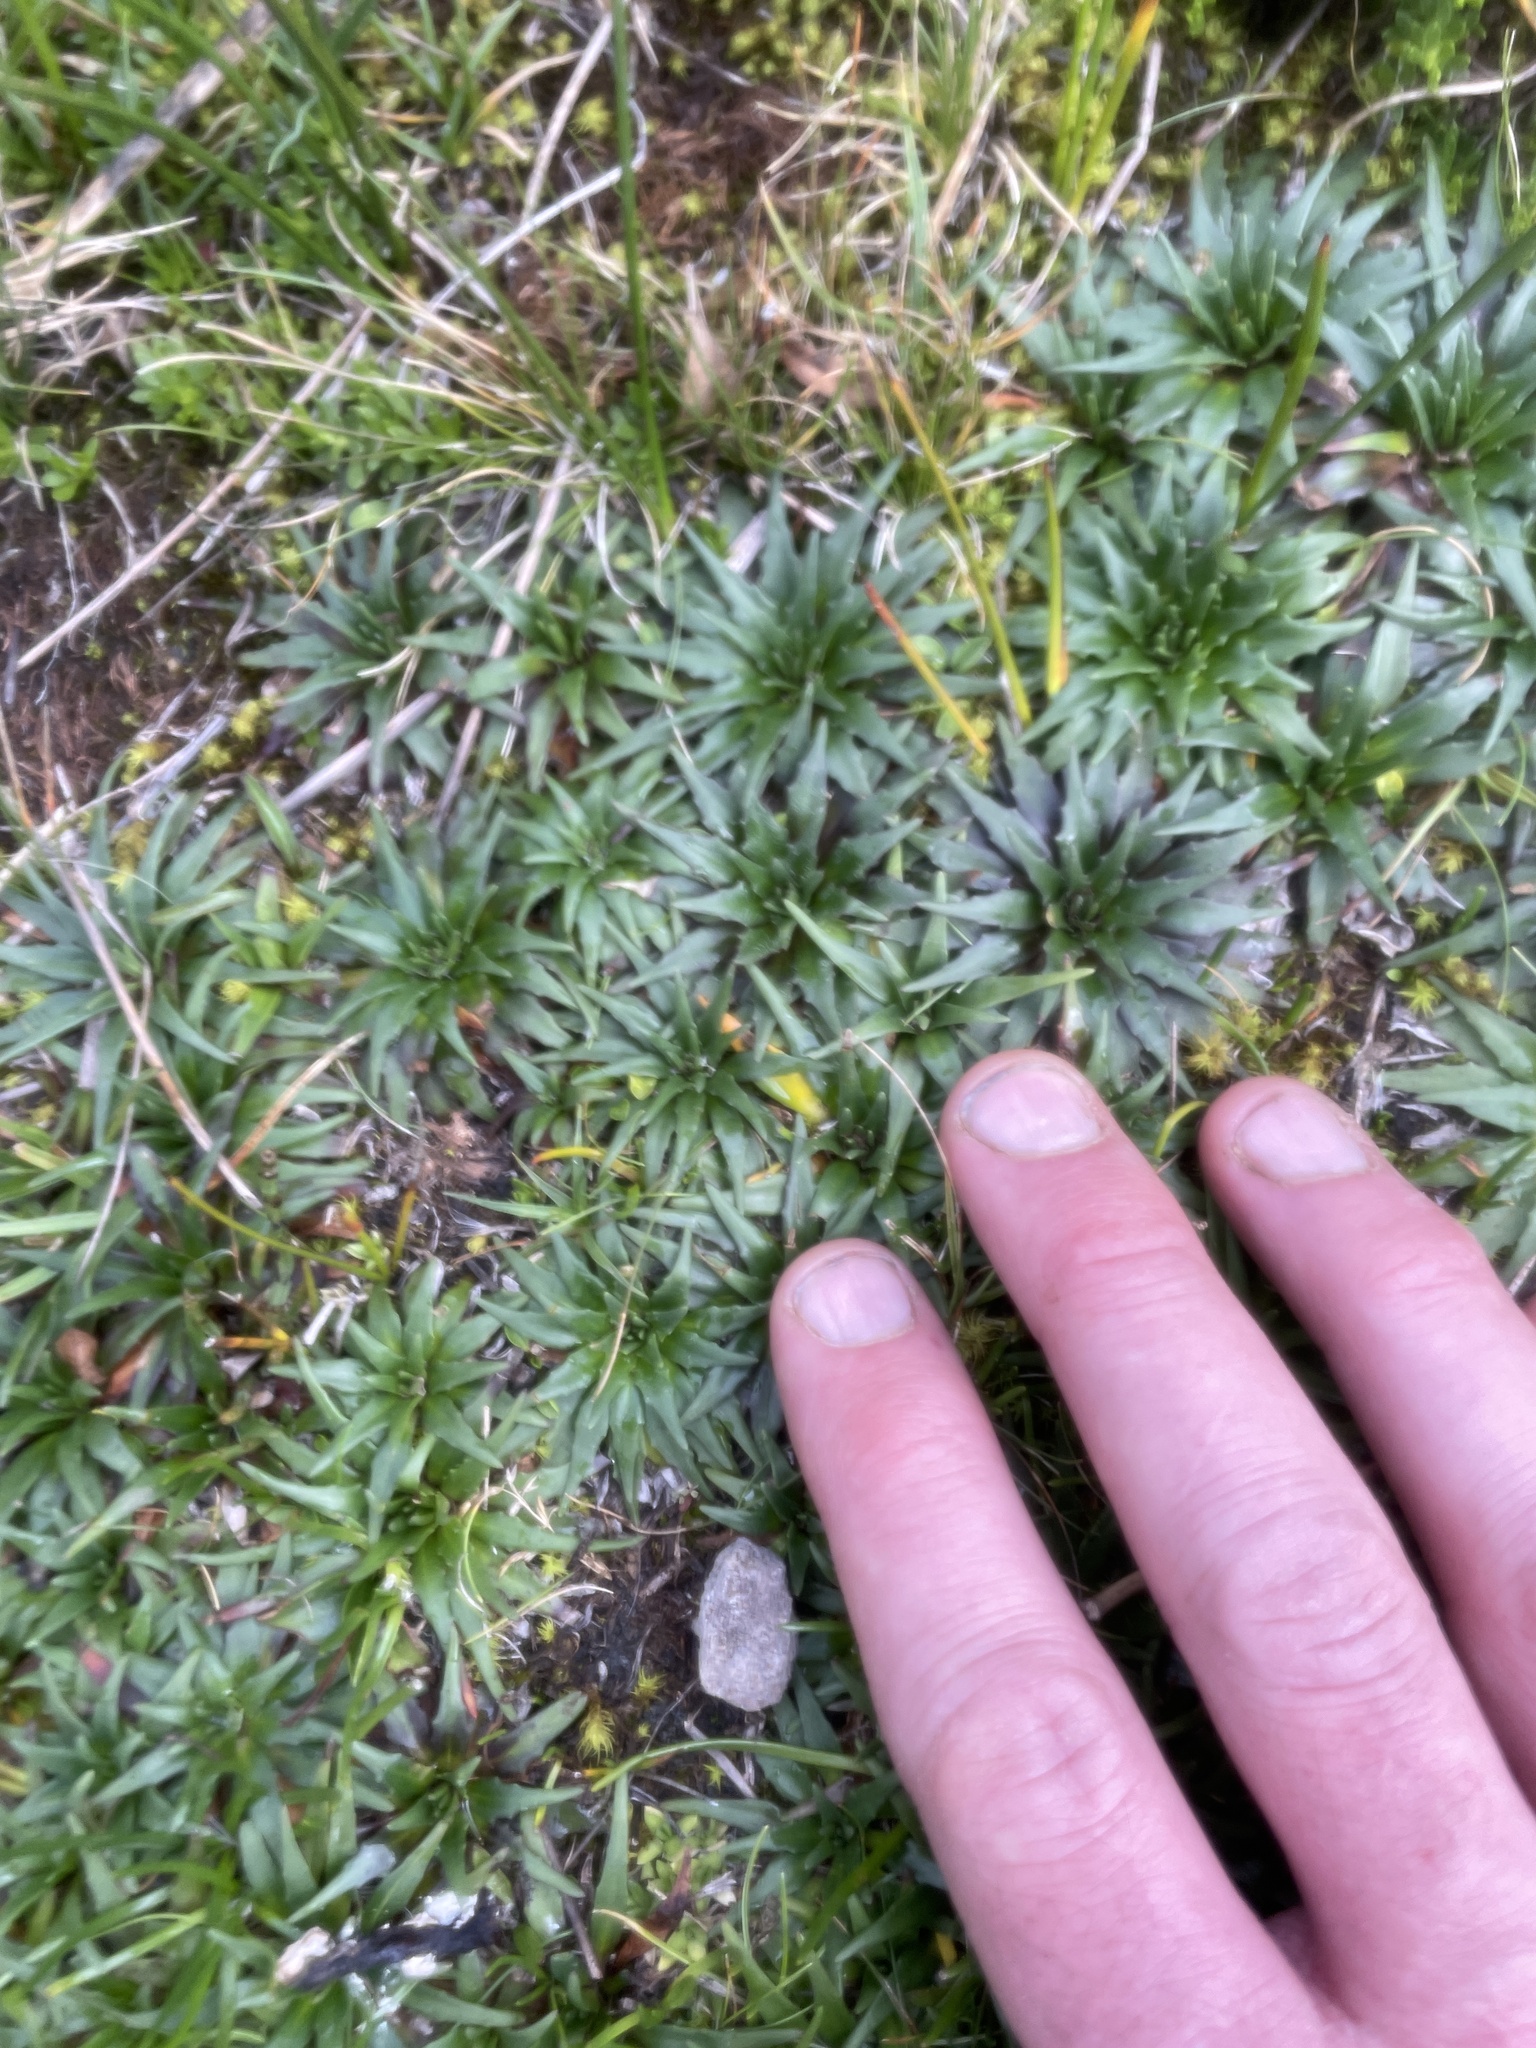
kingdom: Plantae
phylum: Tracheophyta
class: Magnoliopsida
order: Lamiales
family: Plantaginaceae
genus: Plantago
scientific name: Plantago tubulosa
